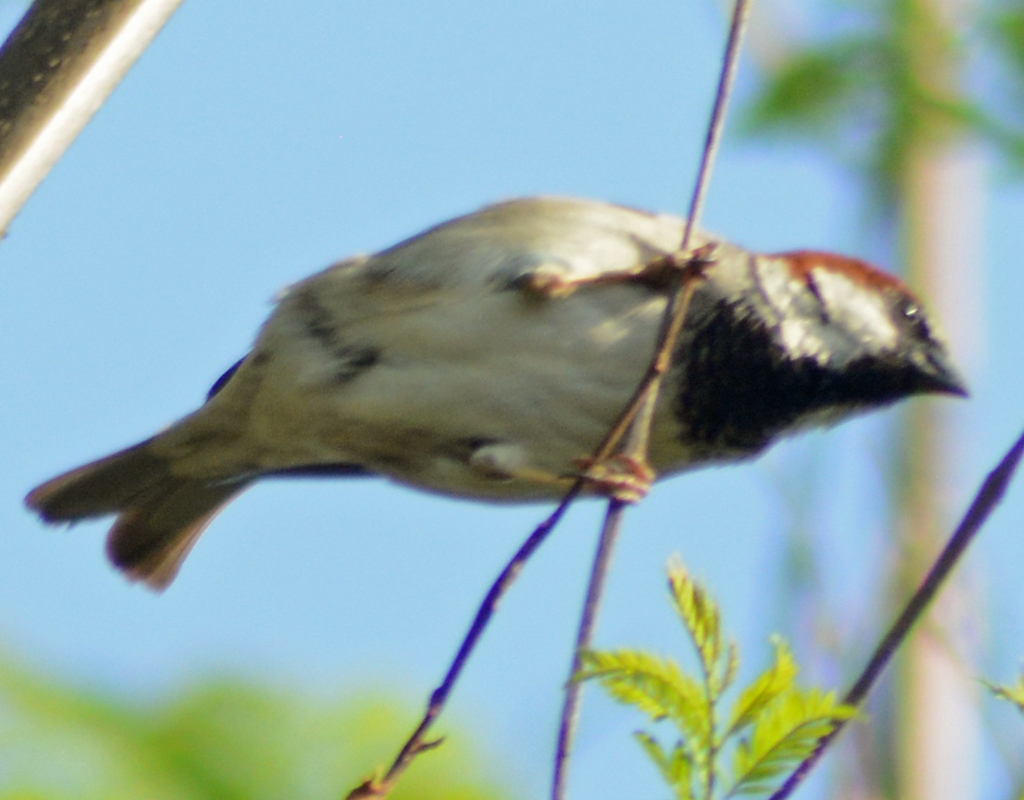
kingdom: Animalia
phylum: Chordata
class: Aves
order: Passeriformes
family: Passeridae
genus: Passer
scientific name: Passer domesticus
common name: House sparrow
